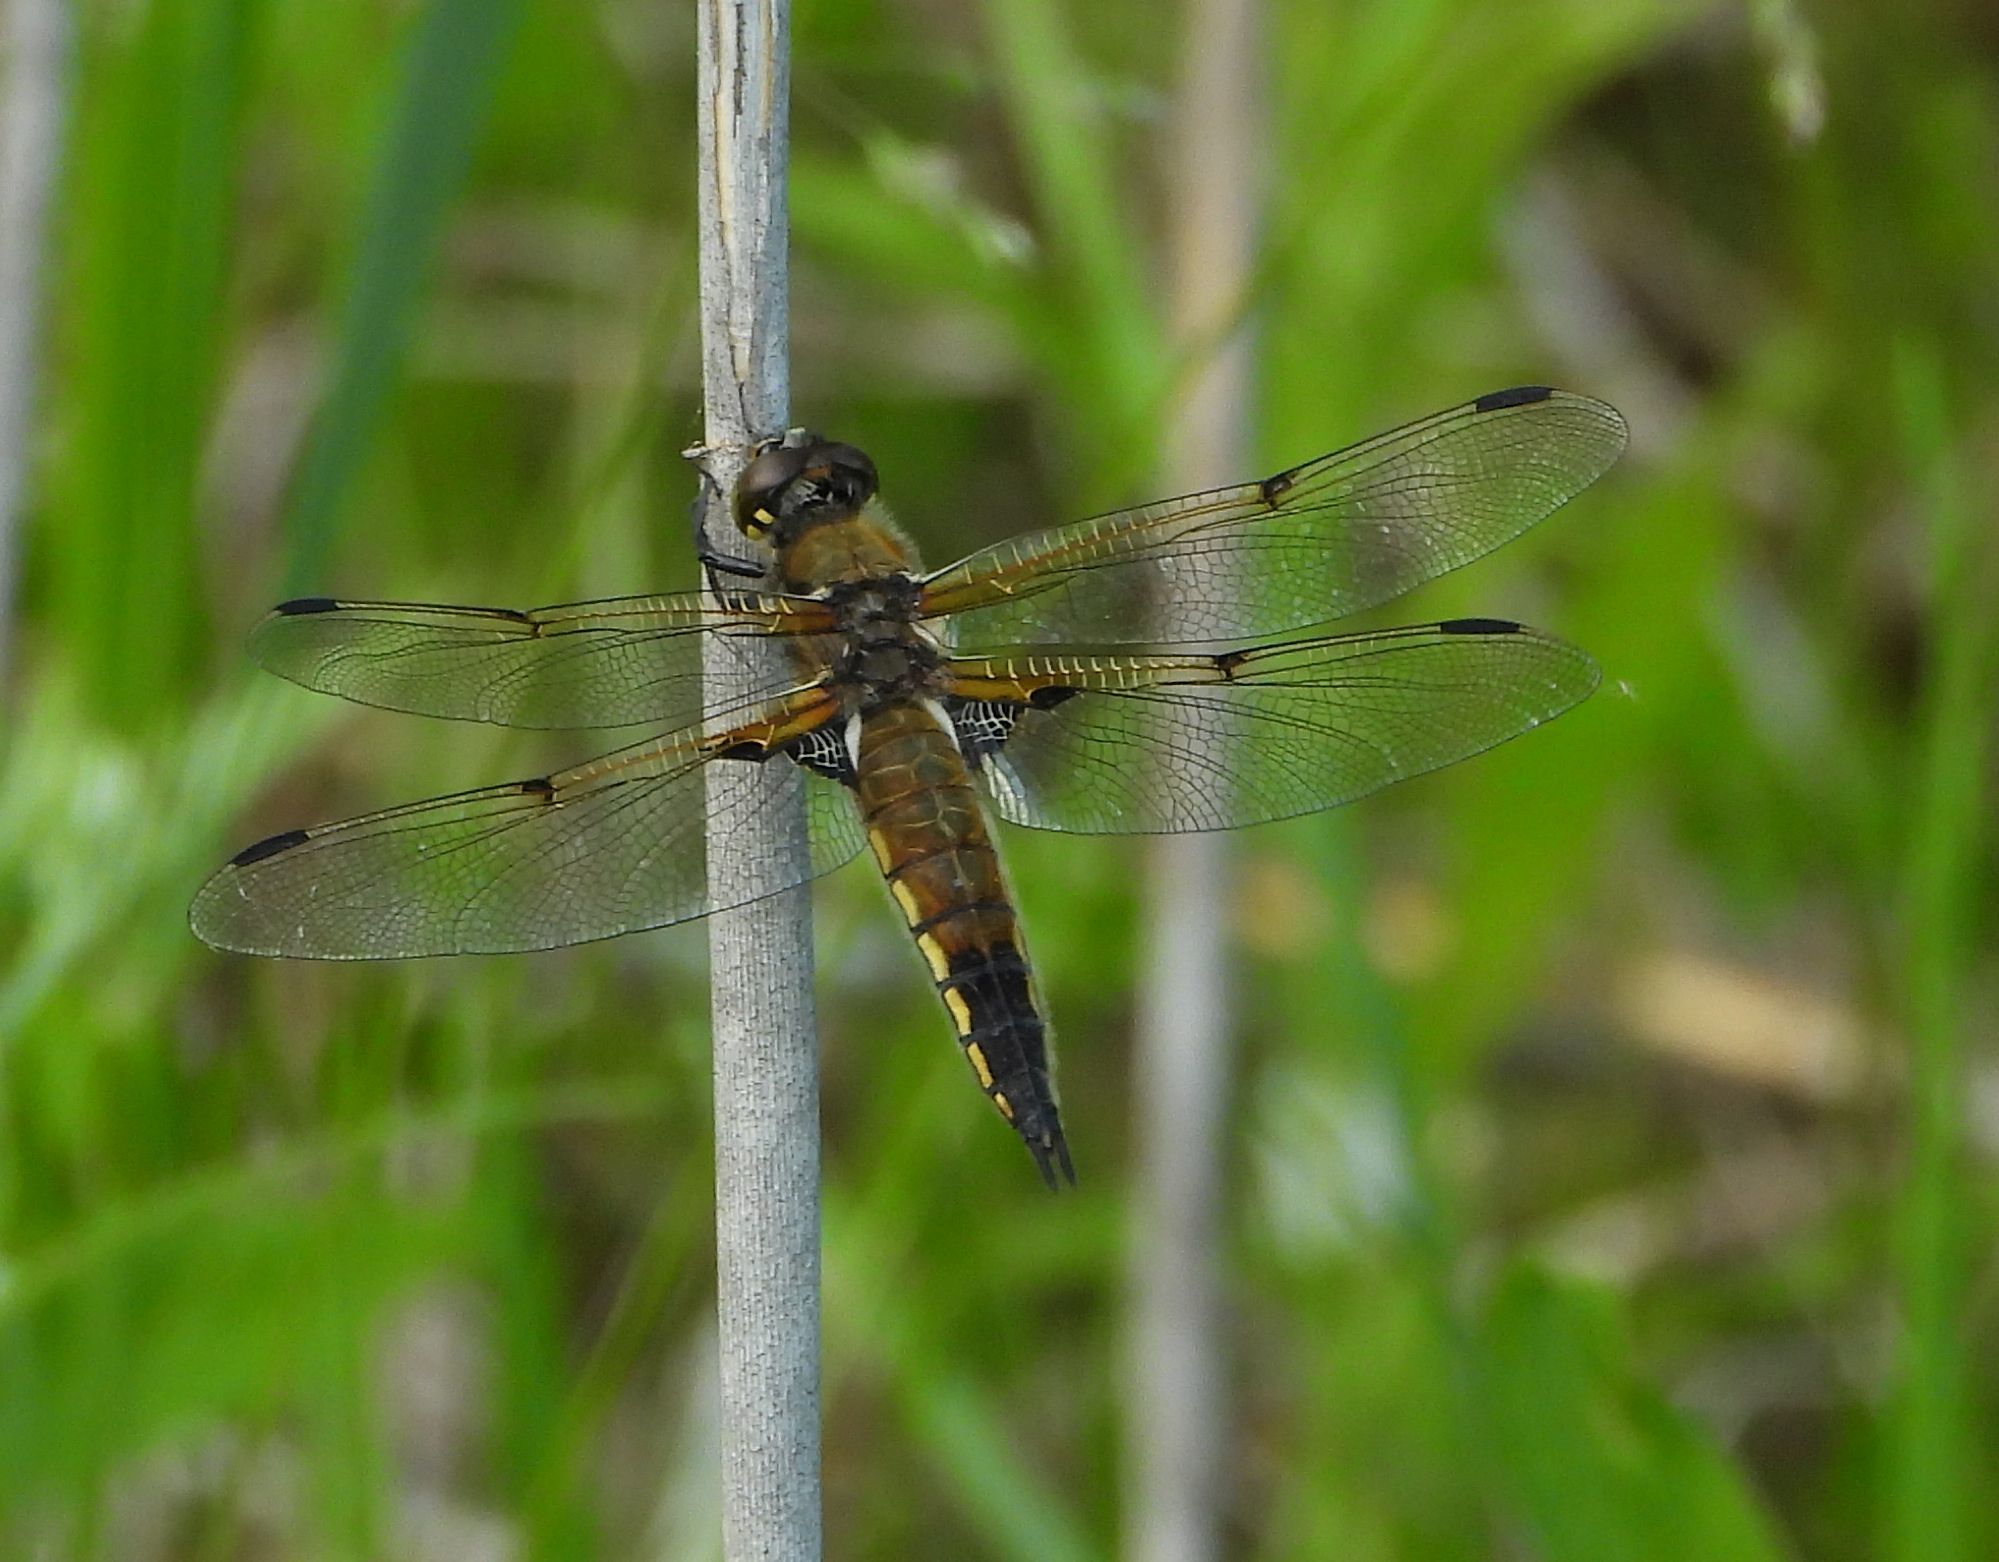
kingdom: Animalia
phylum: Arthropoda
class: Insecta
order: Odonata
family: Libellulidae
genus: Libellula
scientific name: Libellula quadrimaculata
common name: Four-spotted chaser
